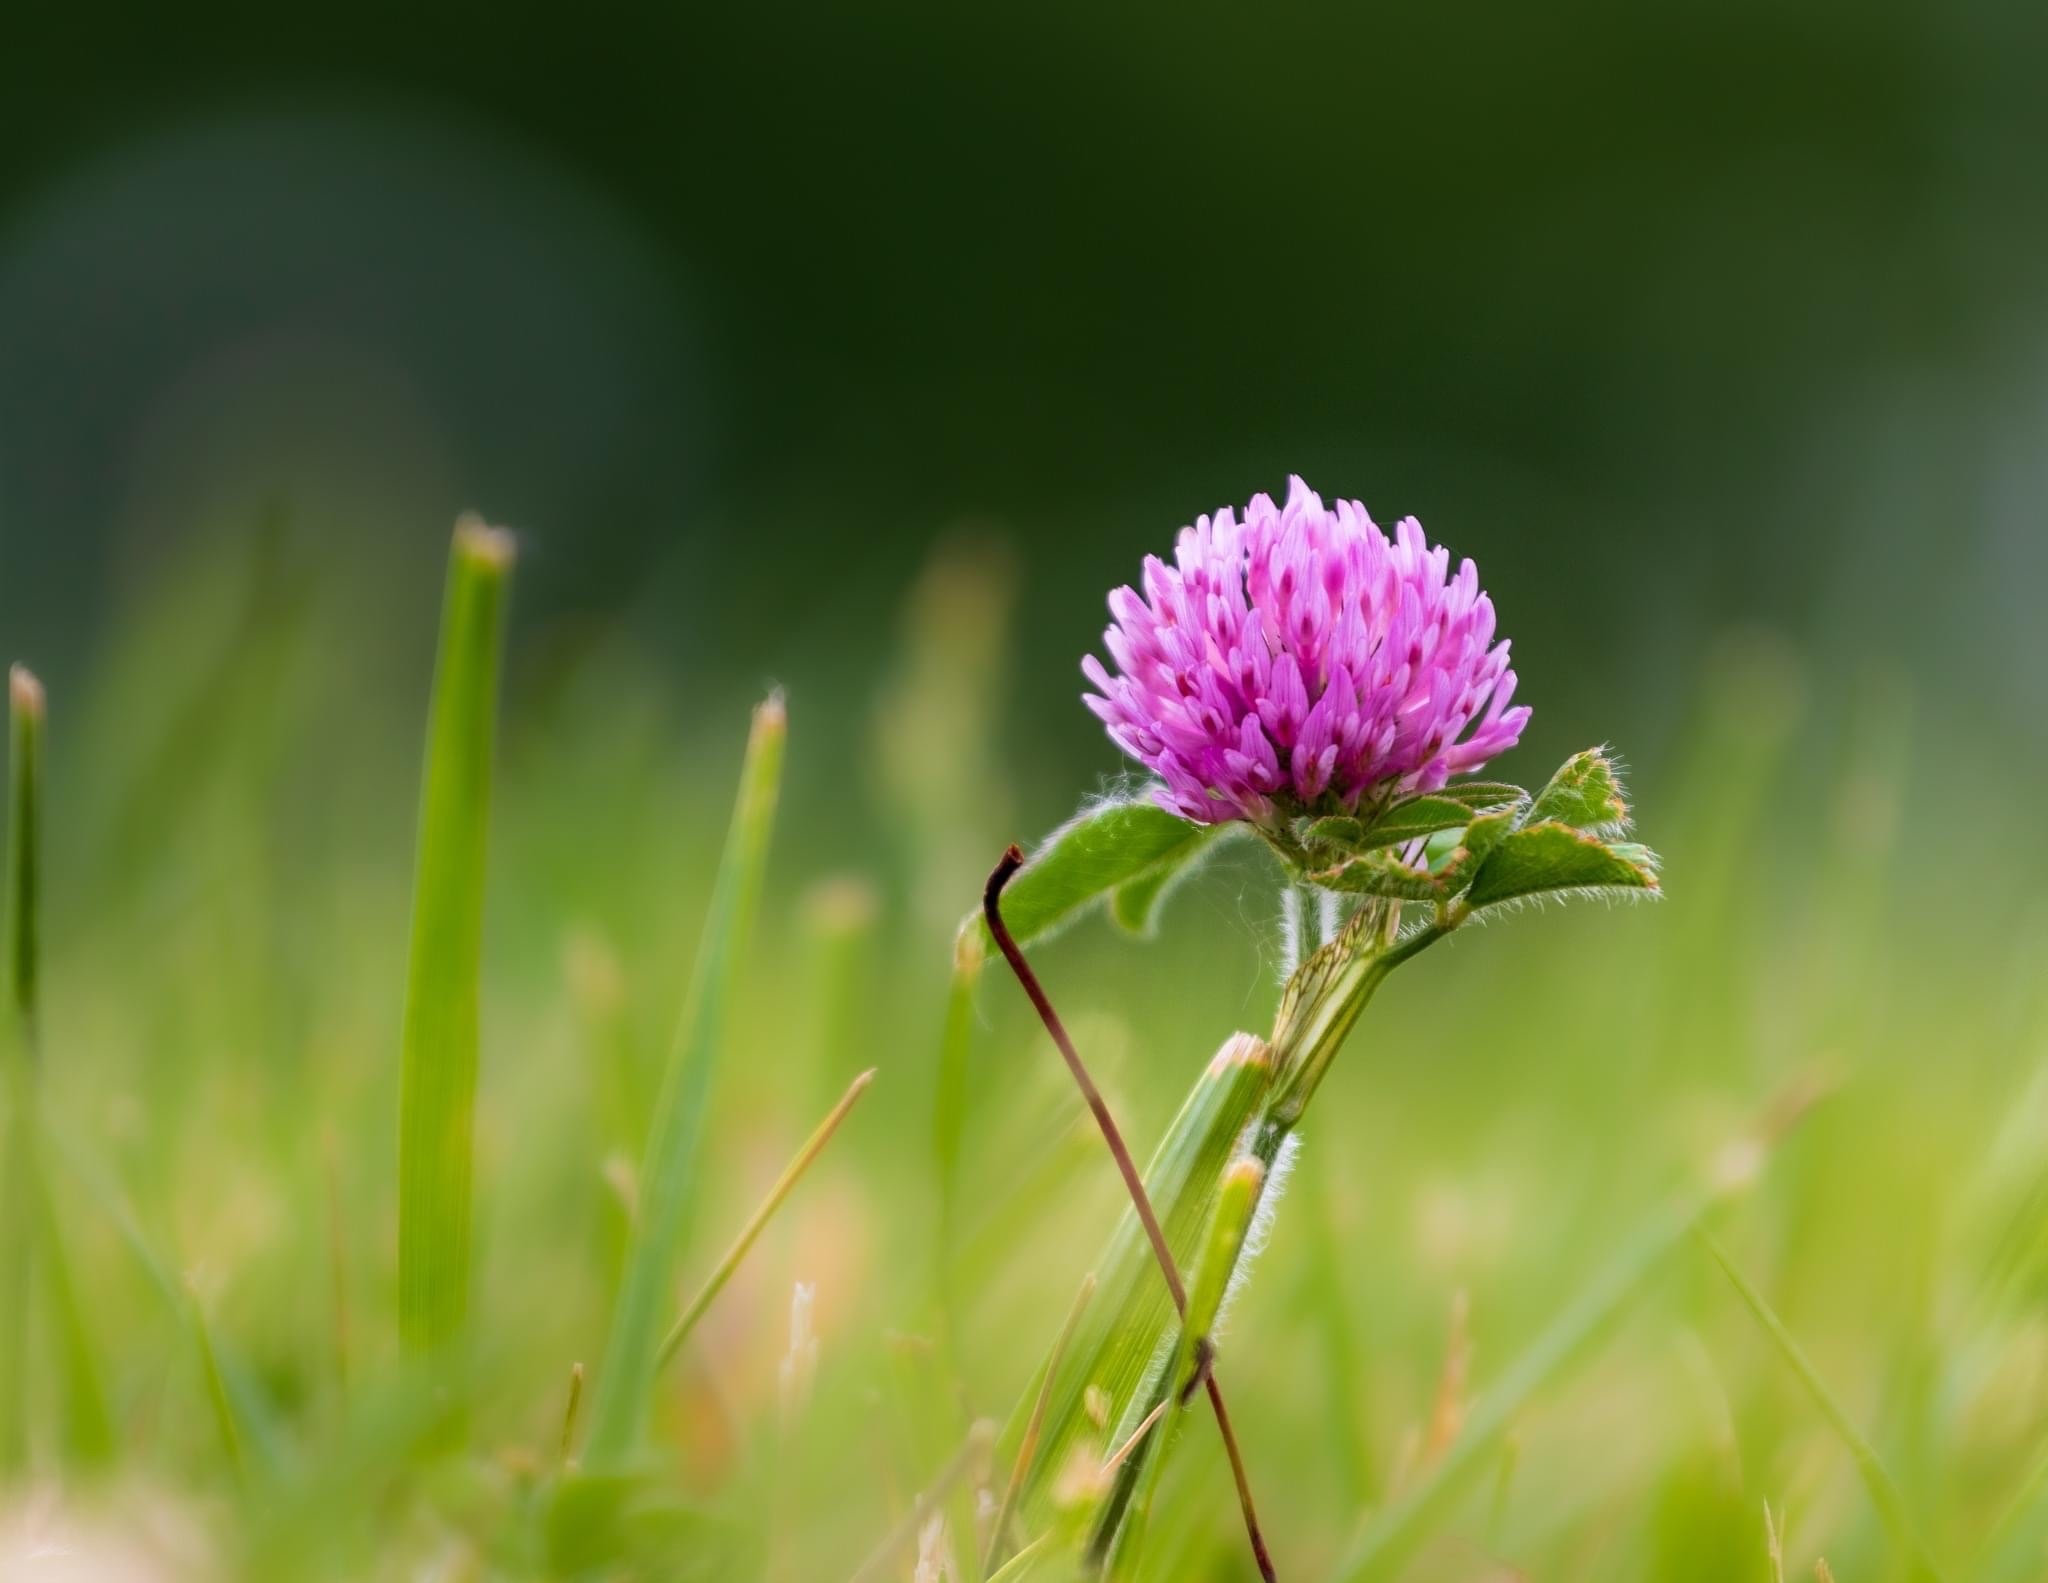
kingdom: Plantae
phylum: Tracheophyta
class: Magnoliopsida
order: Fabales
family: Fabaceae
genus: Trifolium
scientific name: Trifolium pratense
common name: Red clover
